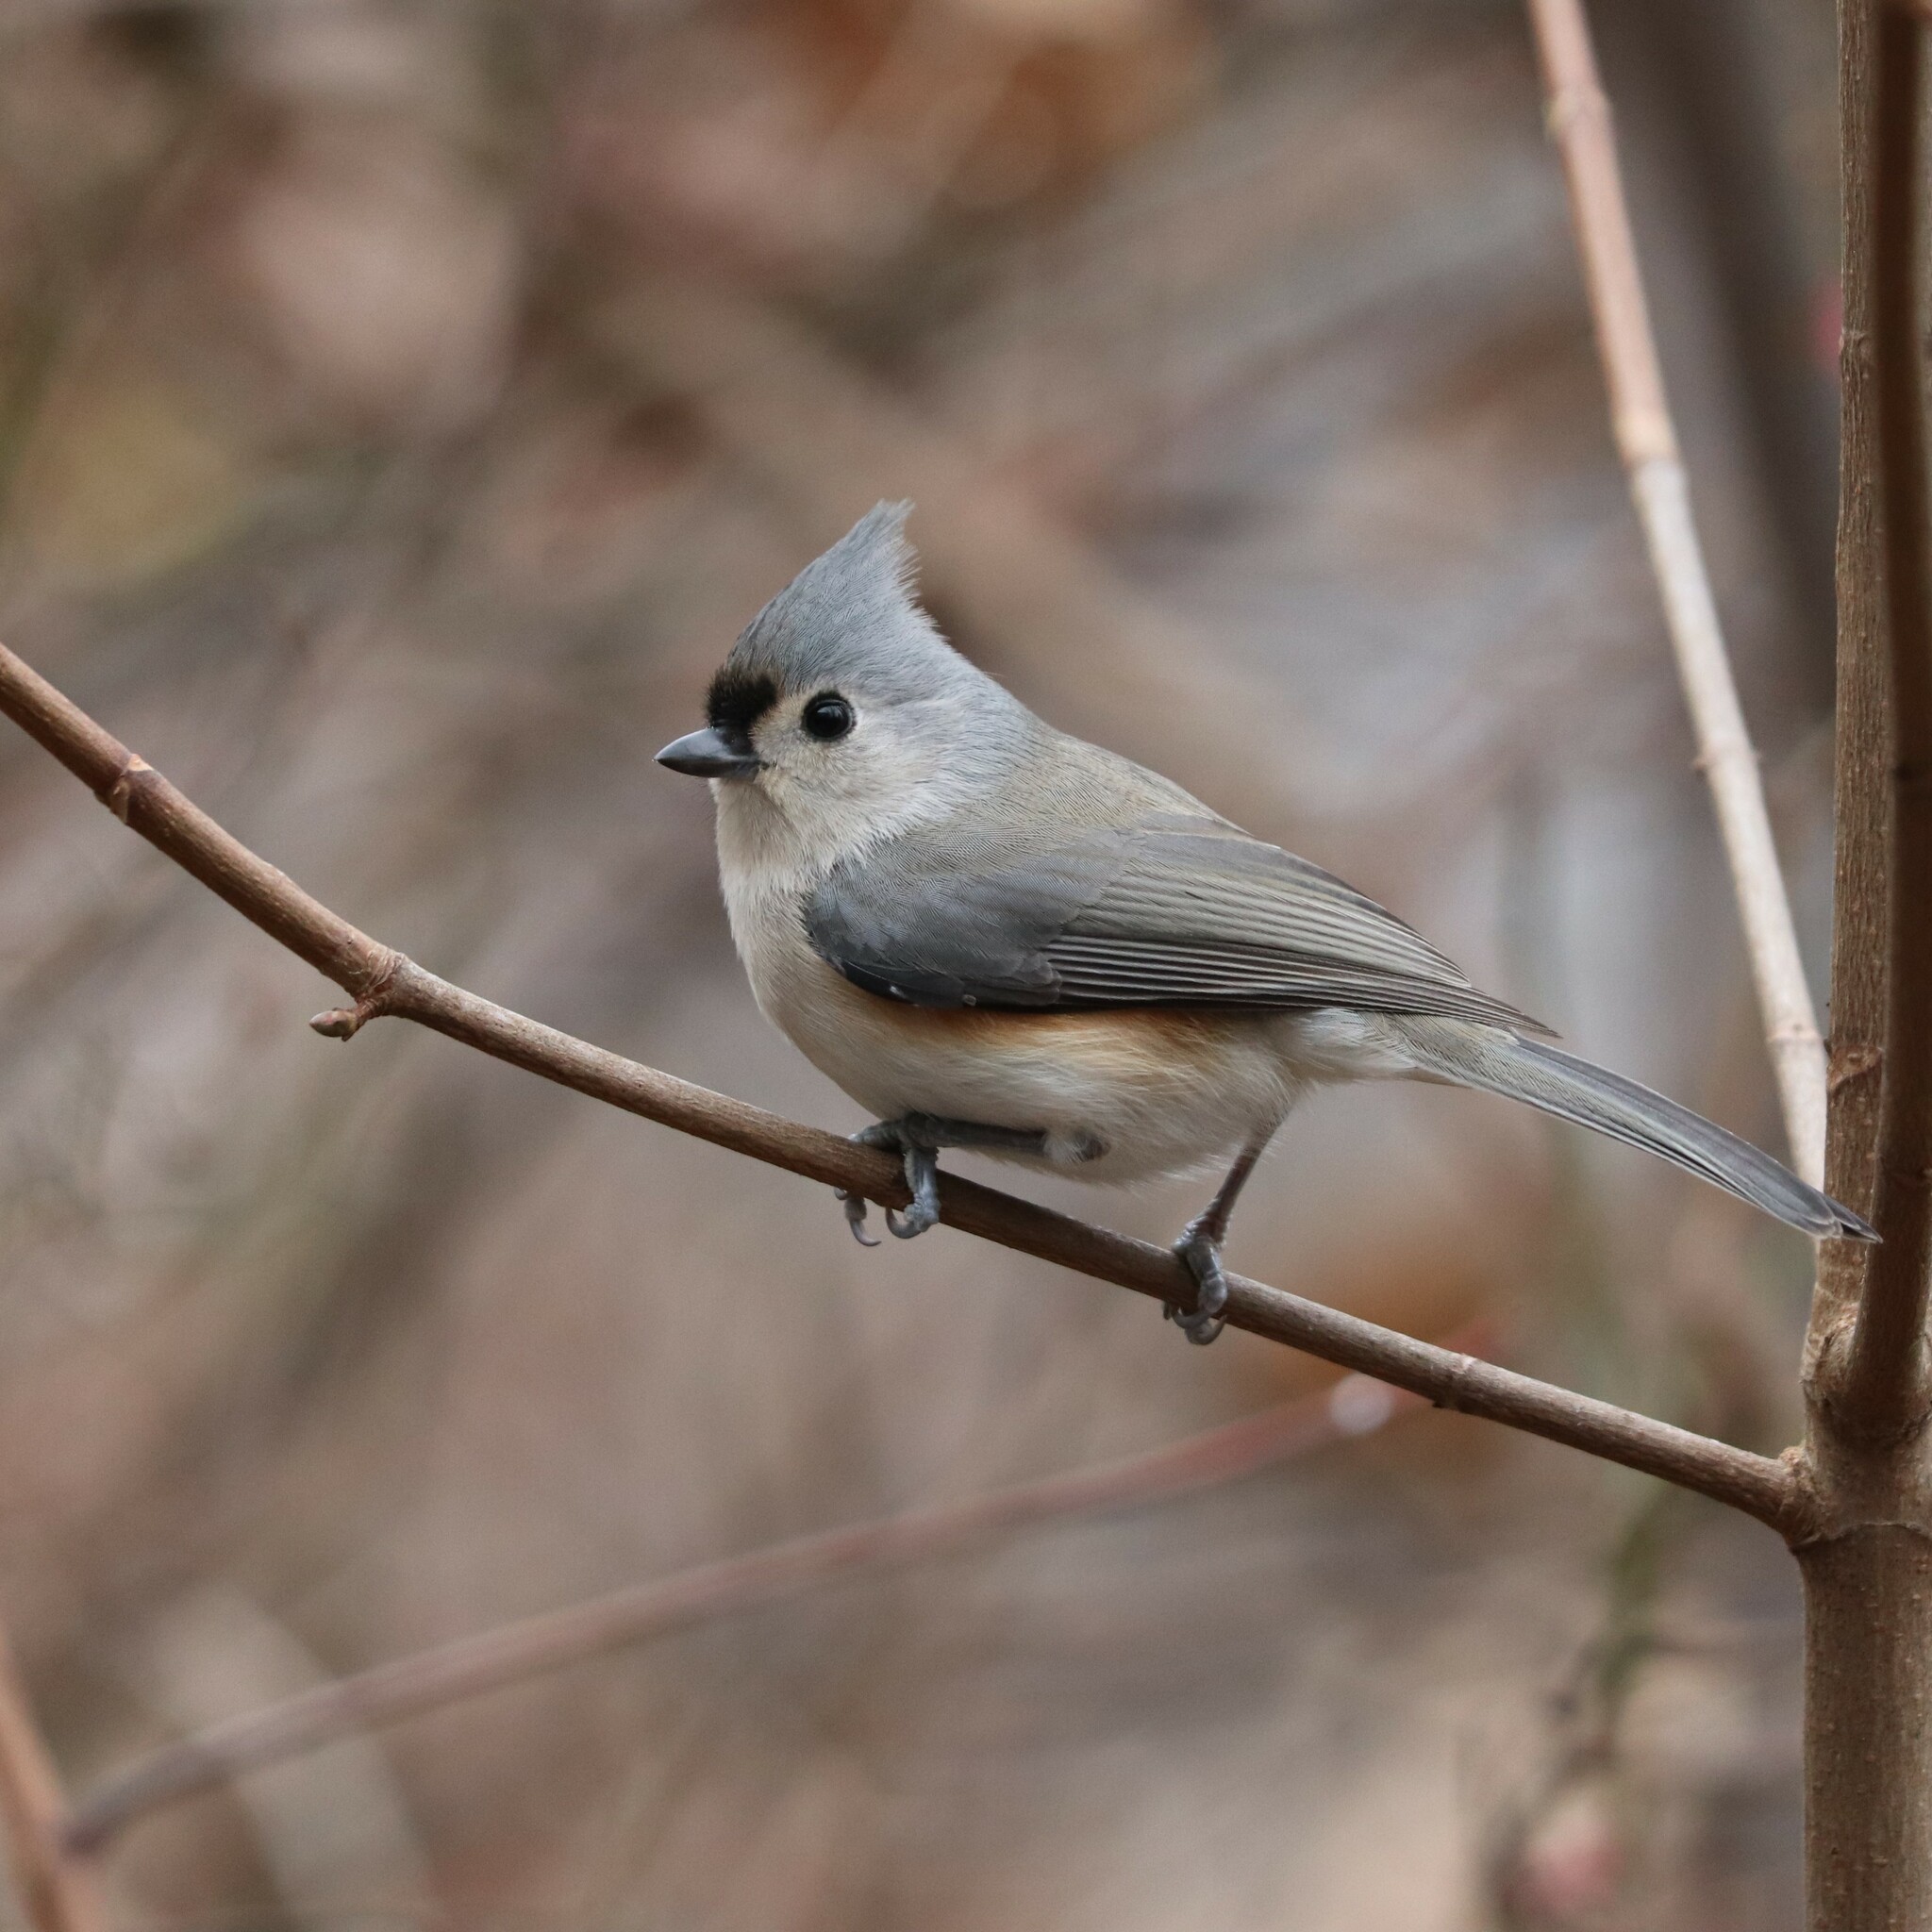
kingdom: Animalia
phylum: Chordata
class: Aves
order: Passeriformes
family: Paridae
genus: Baeolophus
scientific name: Baeolophus bicolor
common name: Tufted titmouse
